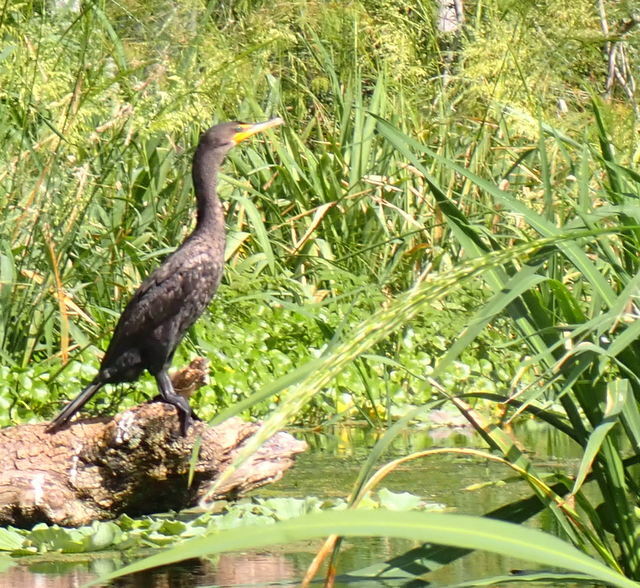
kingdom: Animalia
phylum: Chordata
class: Aves
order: Suliformes
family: Phalacrocoracidae
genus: Phalacrocorax
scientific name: Phalacrocorax auritus
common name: Double-crested cormorant
